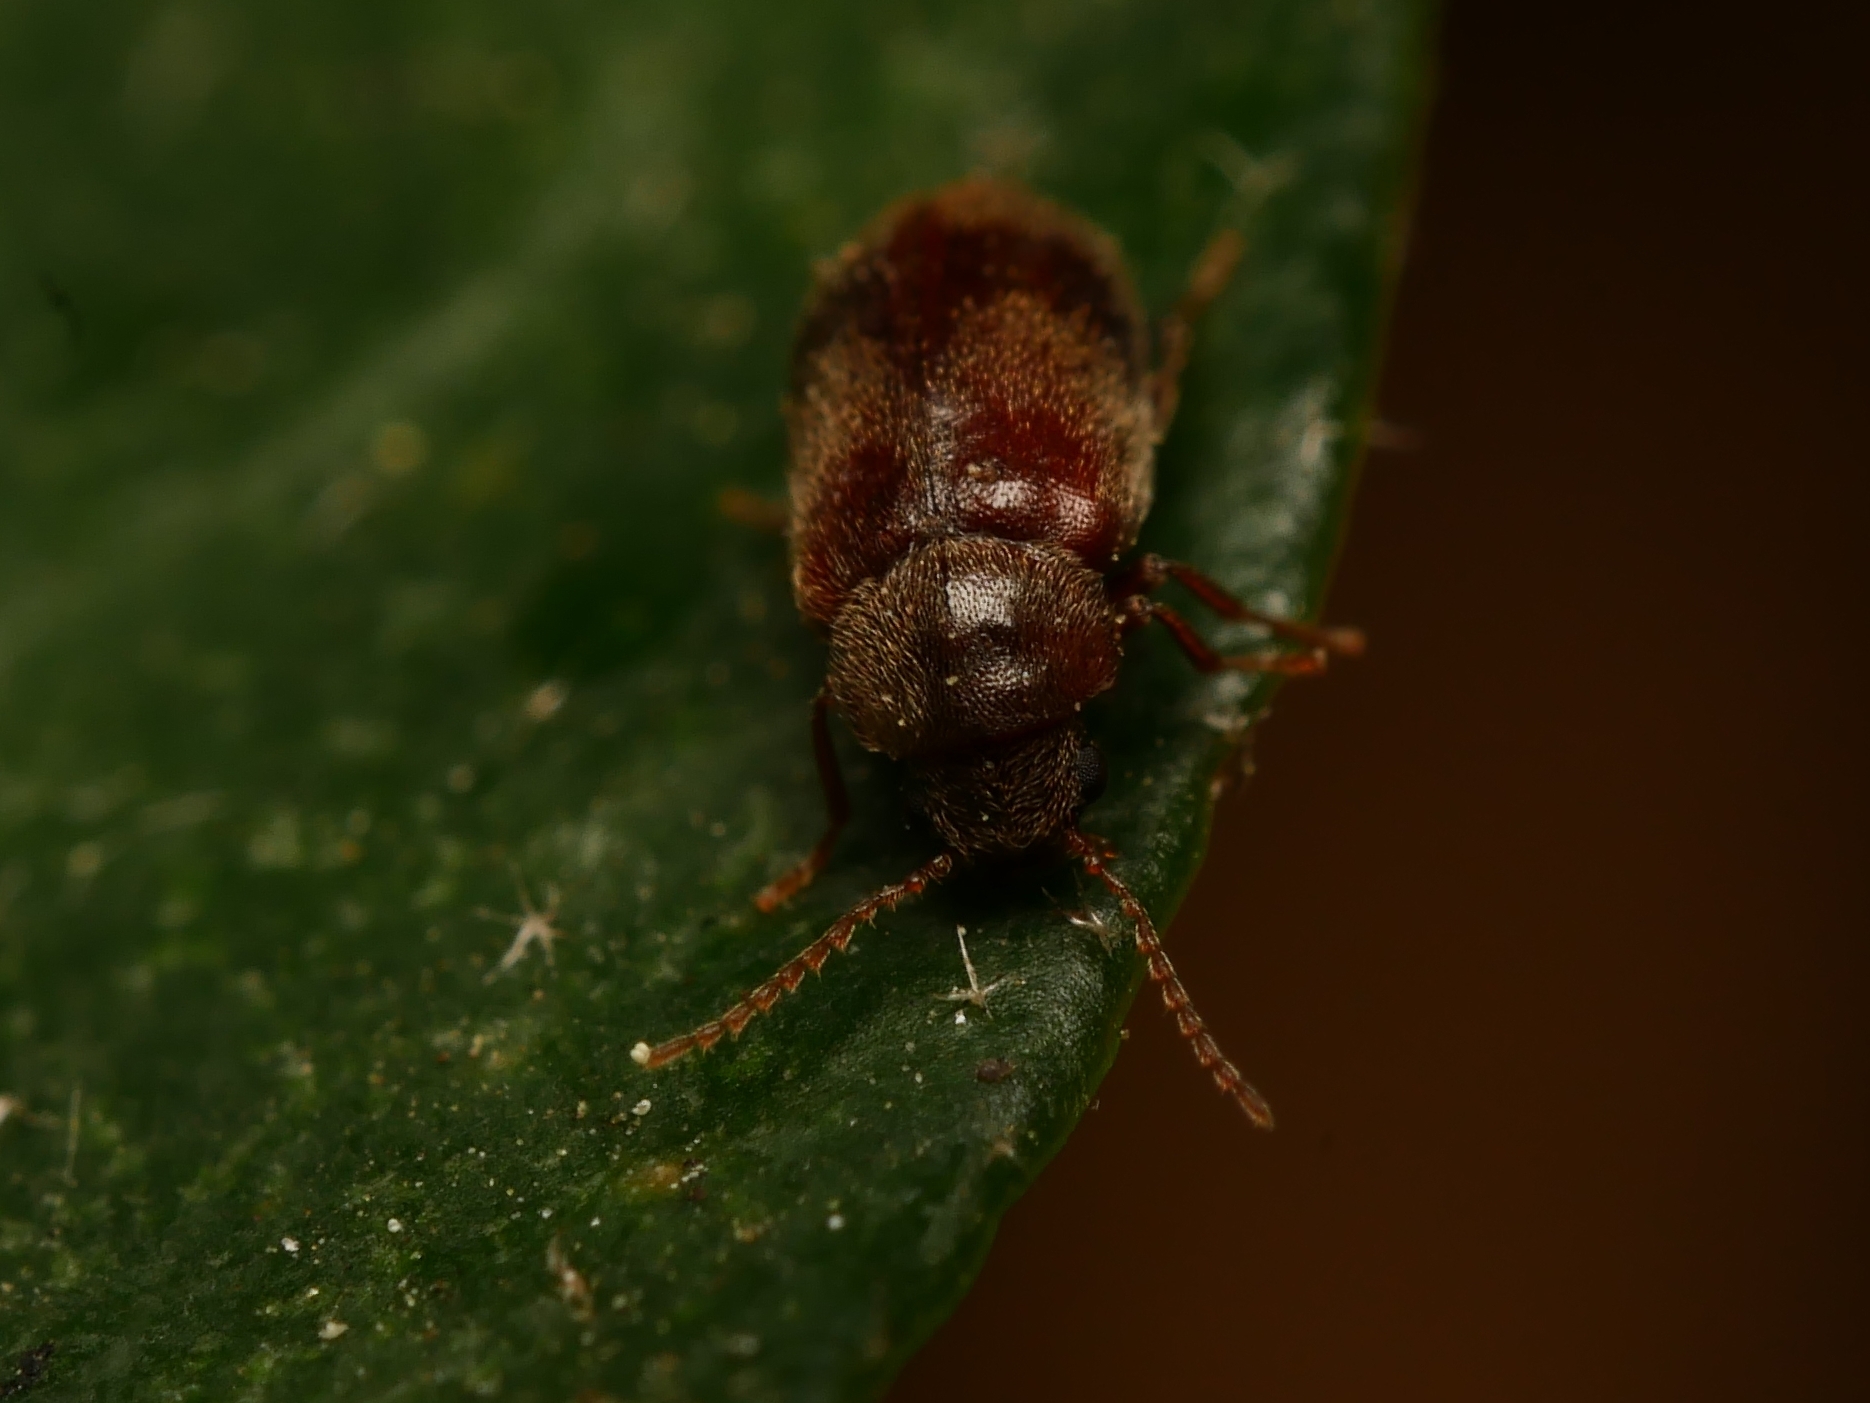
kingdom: Animalia
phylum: Arthropoda
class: Insecta
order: Coleoptera
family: Ptinidae
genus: Ochina
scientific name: Ochina ptinoides
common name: Ivy boring beetle
